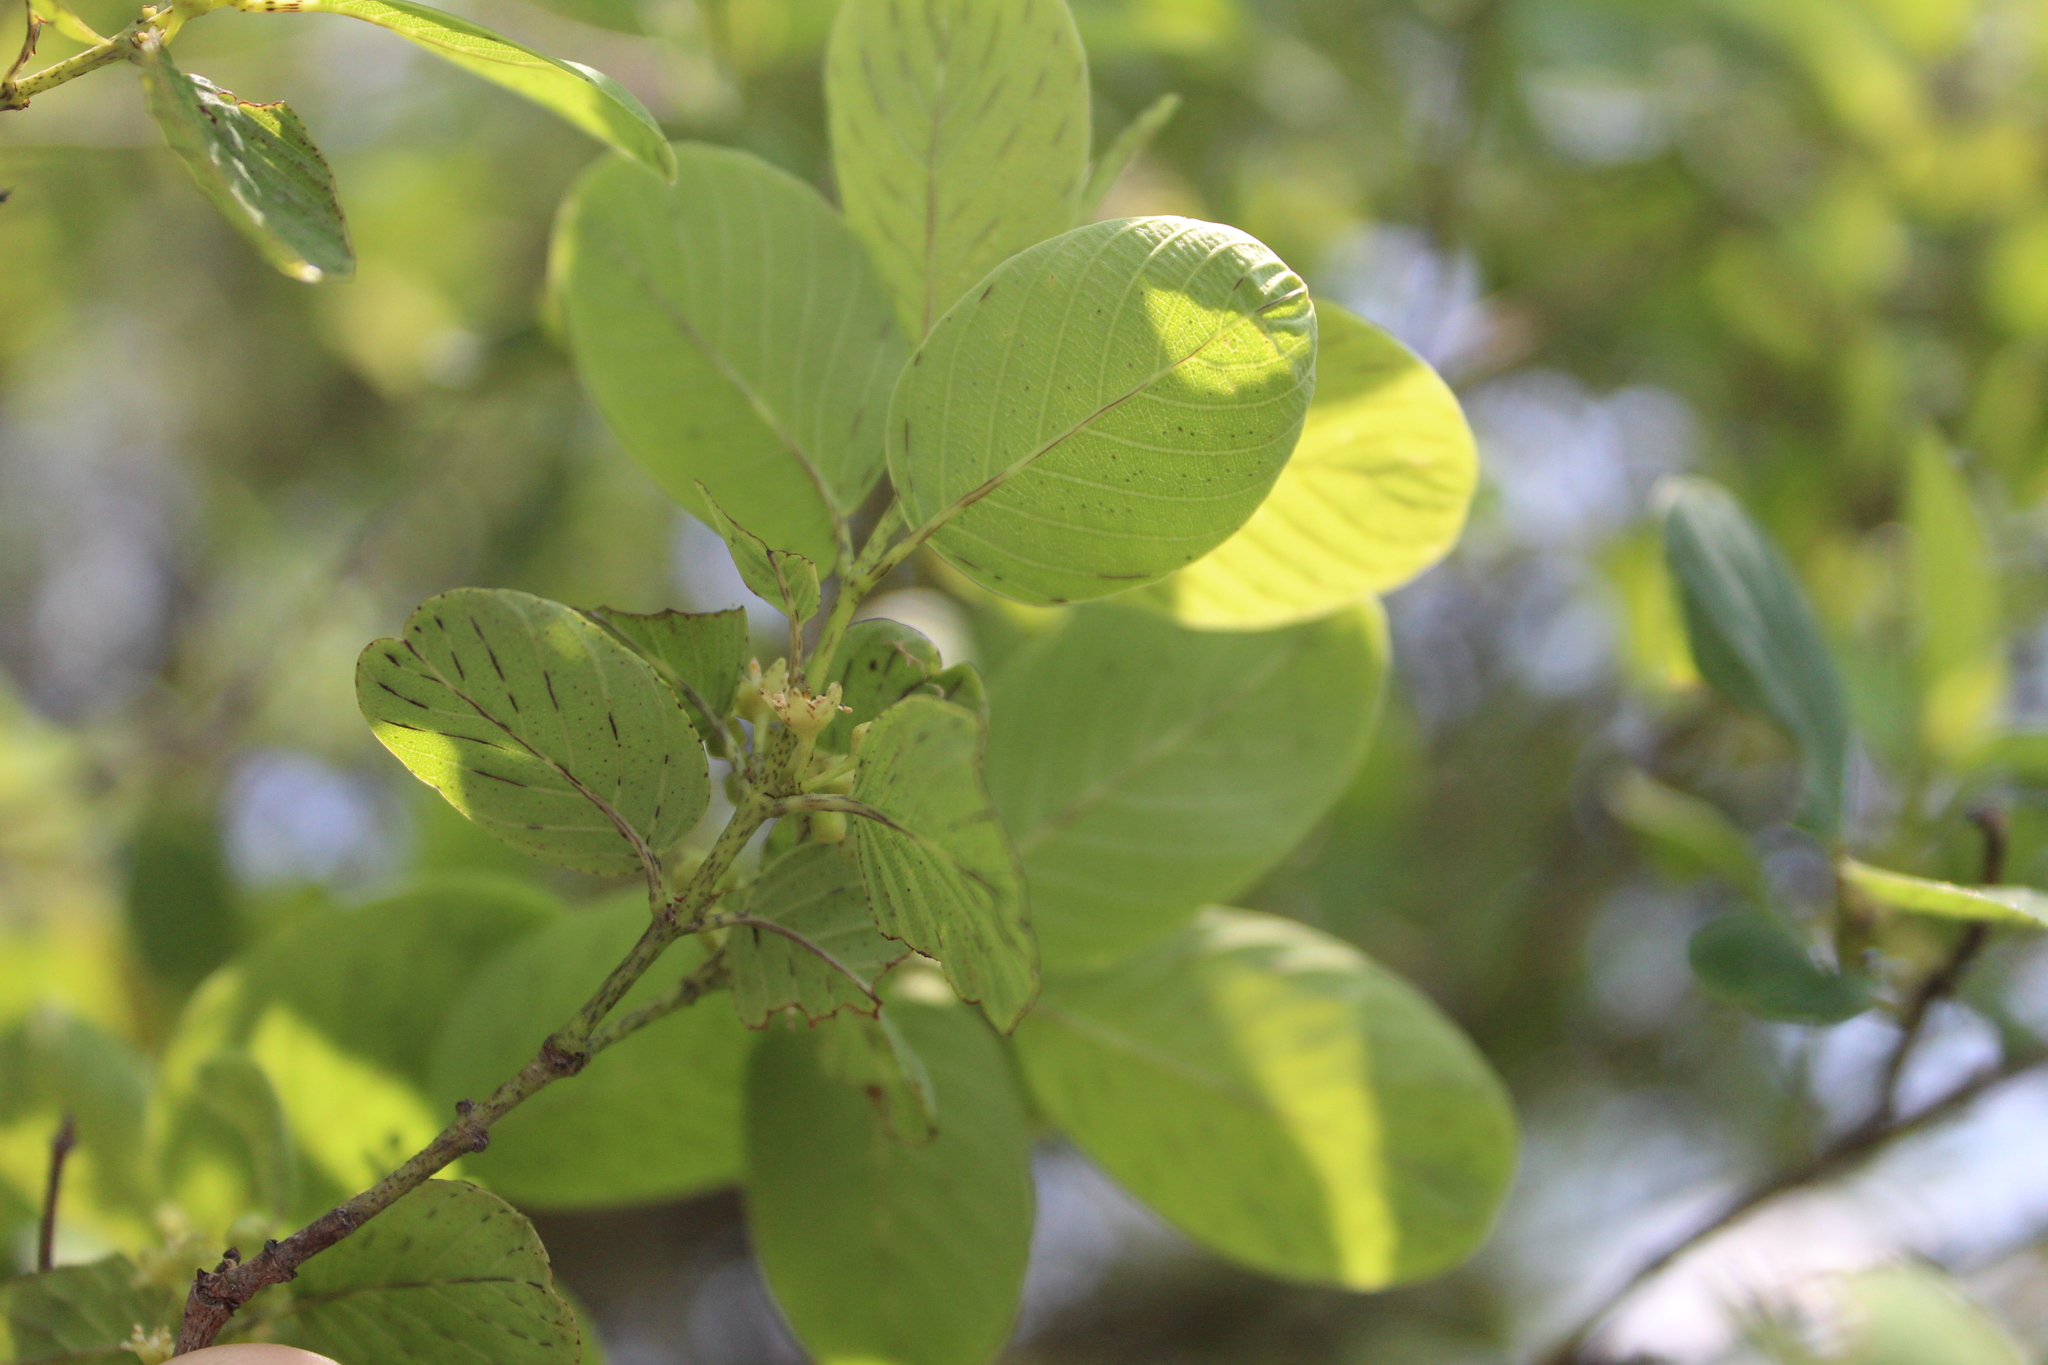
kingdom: Plantae
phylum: Tracheophyta
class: Magnoliopsida
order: Rosales
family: Rhamnaceae
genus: Karwinskia
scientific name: Karwinskia humboldtiana
